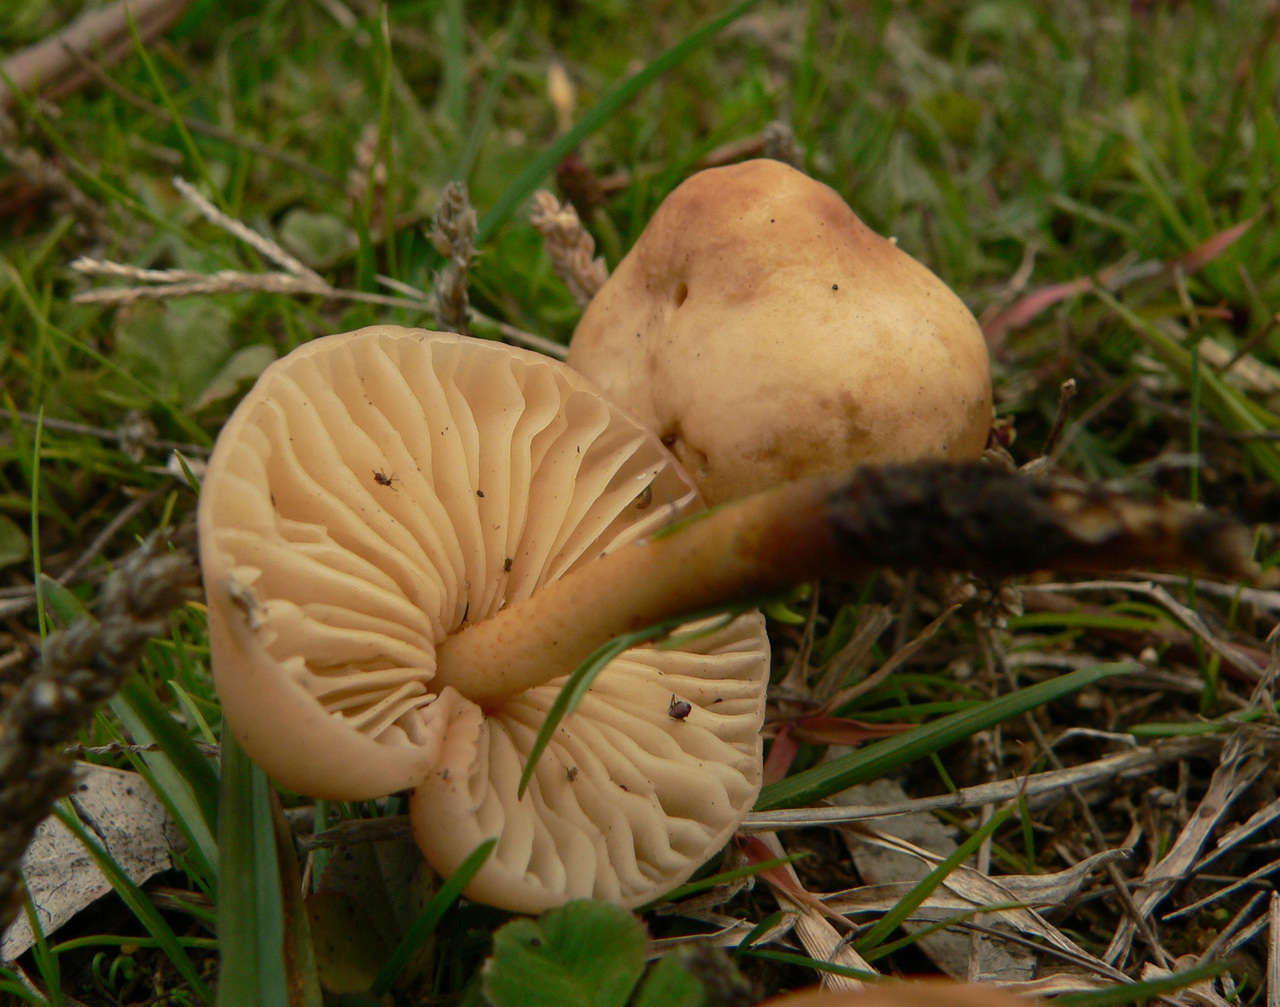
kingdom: Fungi
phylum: Basidiomycota
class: Agaricomycetes
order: Agaricales
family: Marasmiaceae
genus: Marasmius
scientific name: Marasmius oreades
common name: Fairy ring champignon
